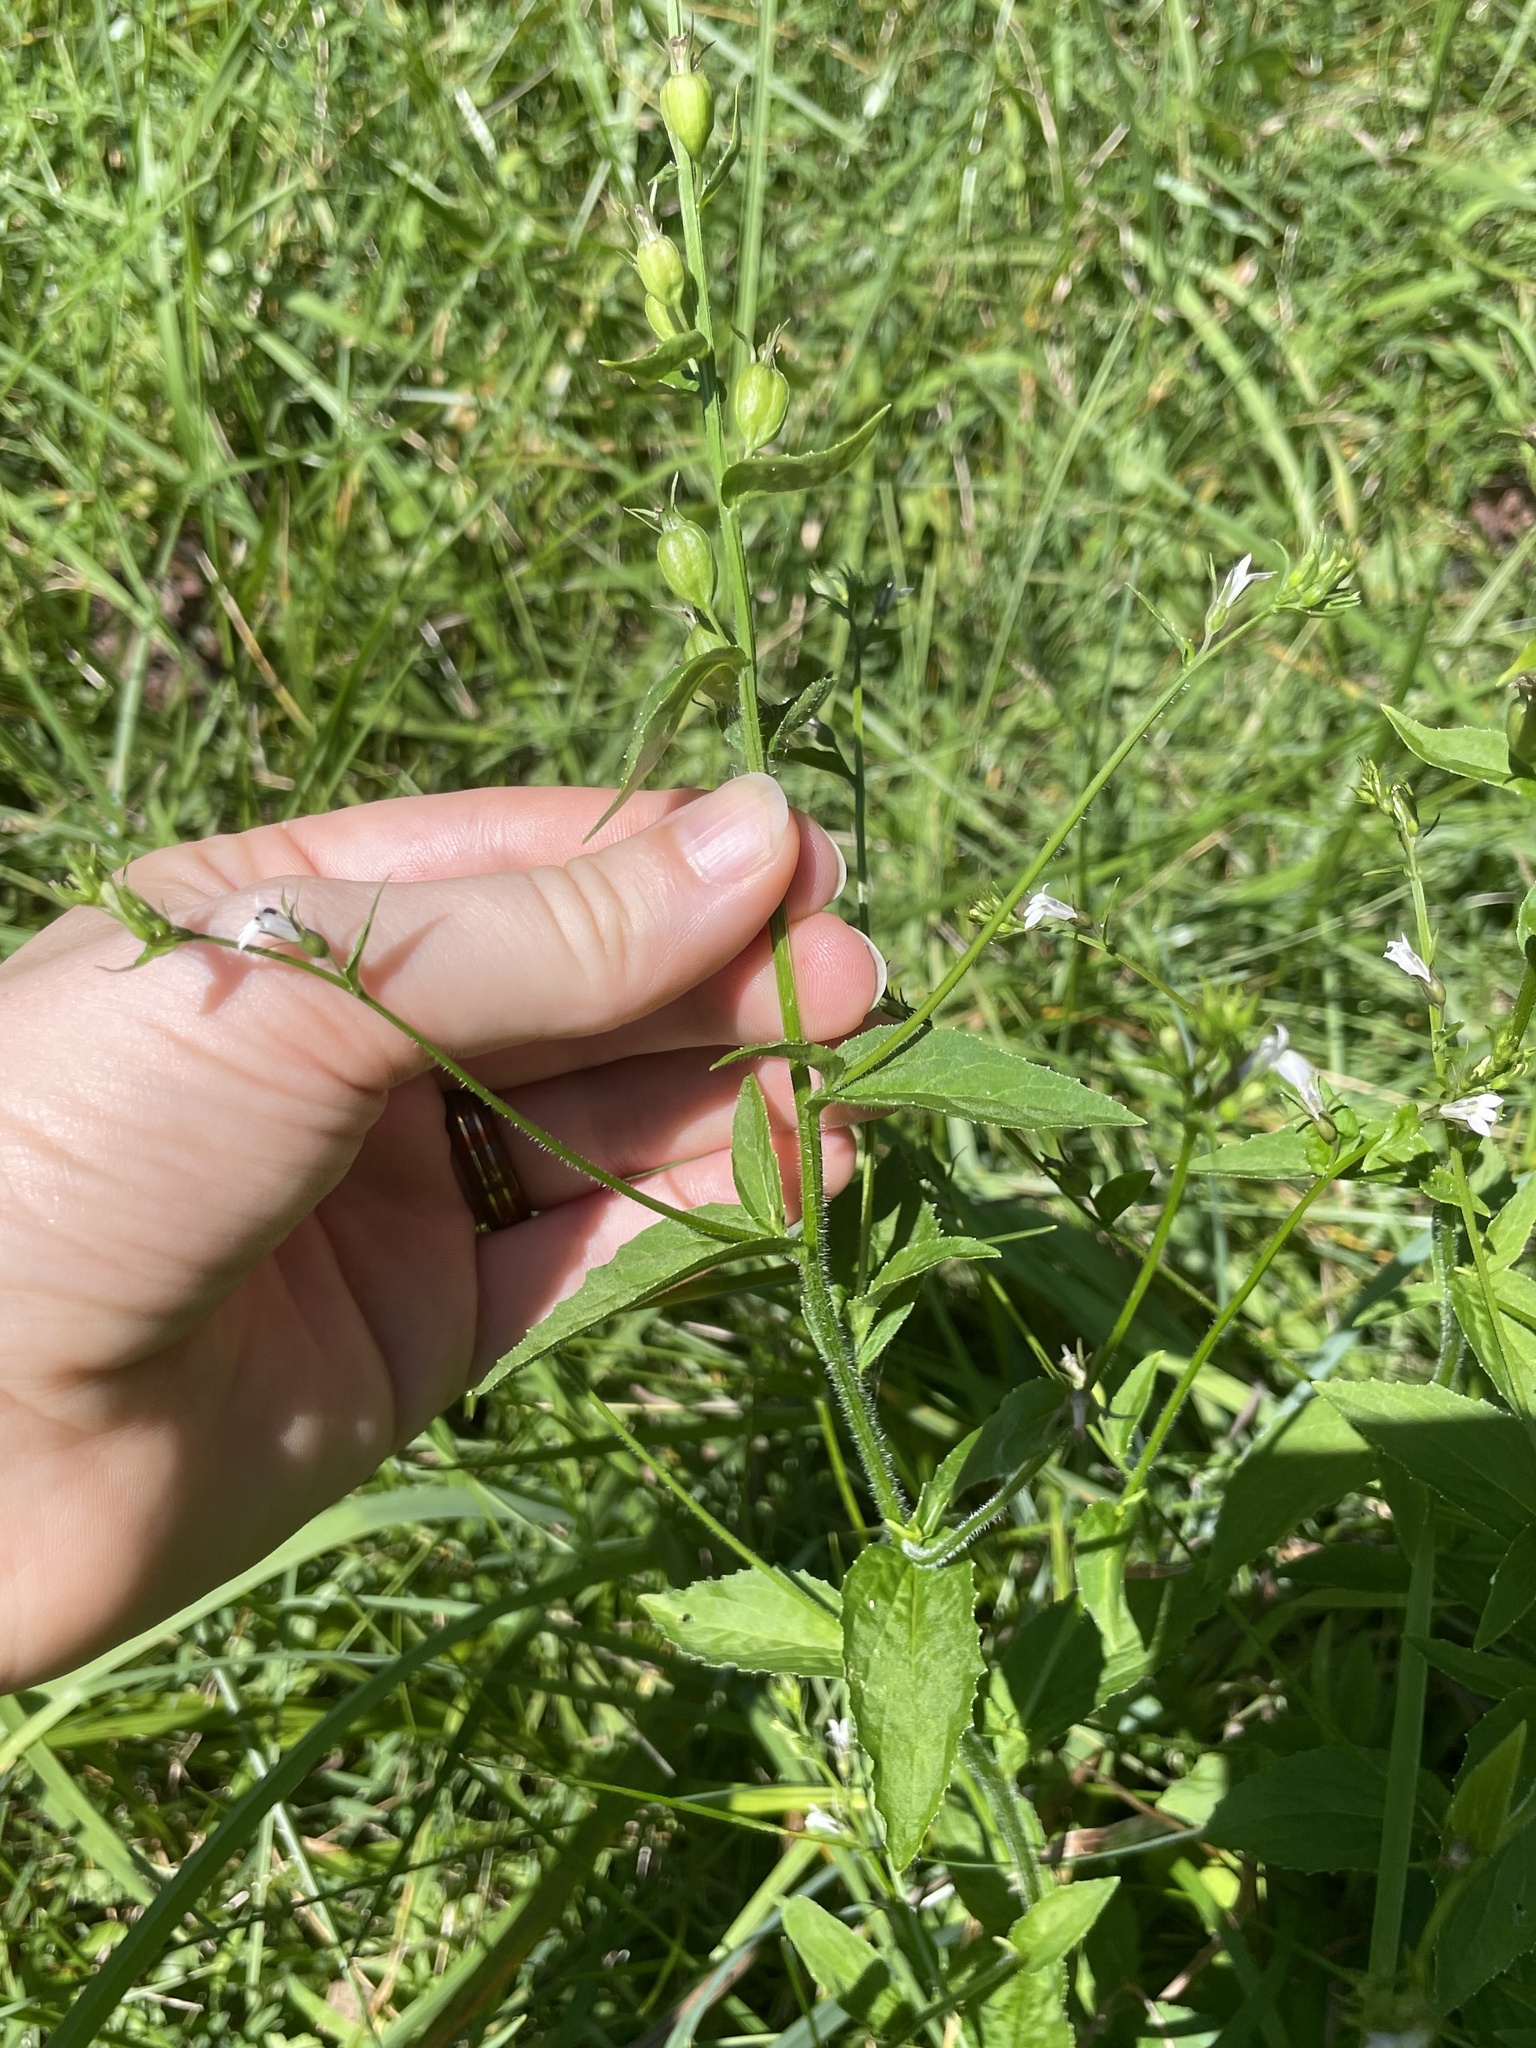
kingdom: Plantae
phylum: Tracheophyta
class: Magnoliopsida
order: Asterales
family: Campanulaceae
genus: Lobelia
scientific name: Lobelia inflata
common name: Indian tobacco
